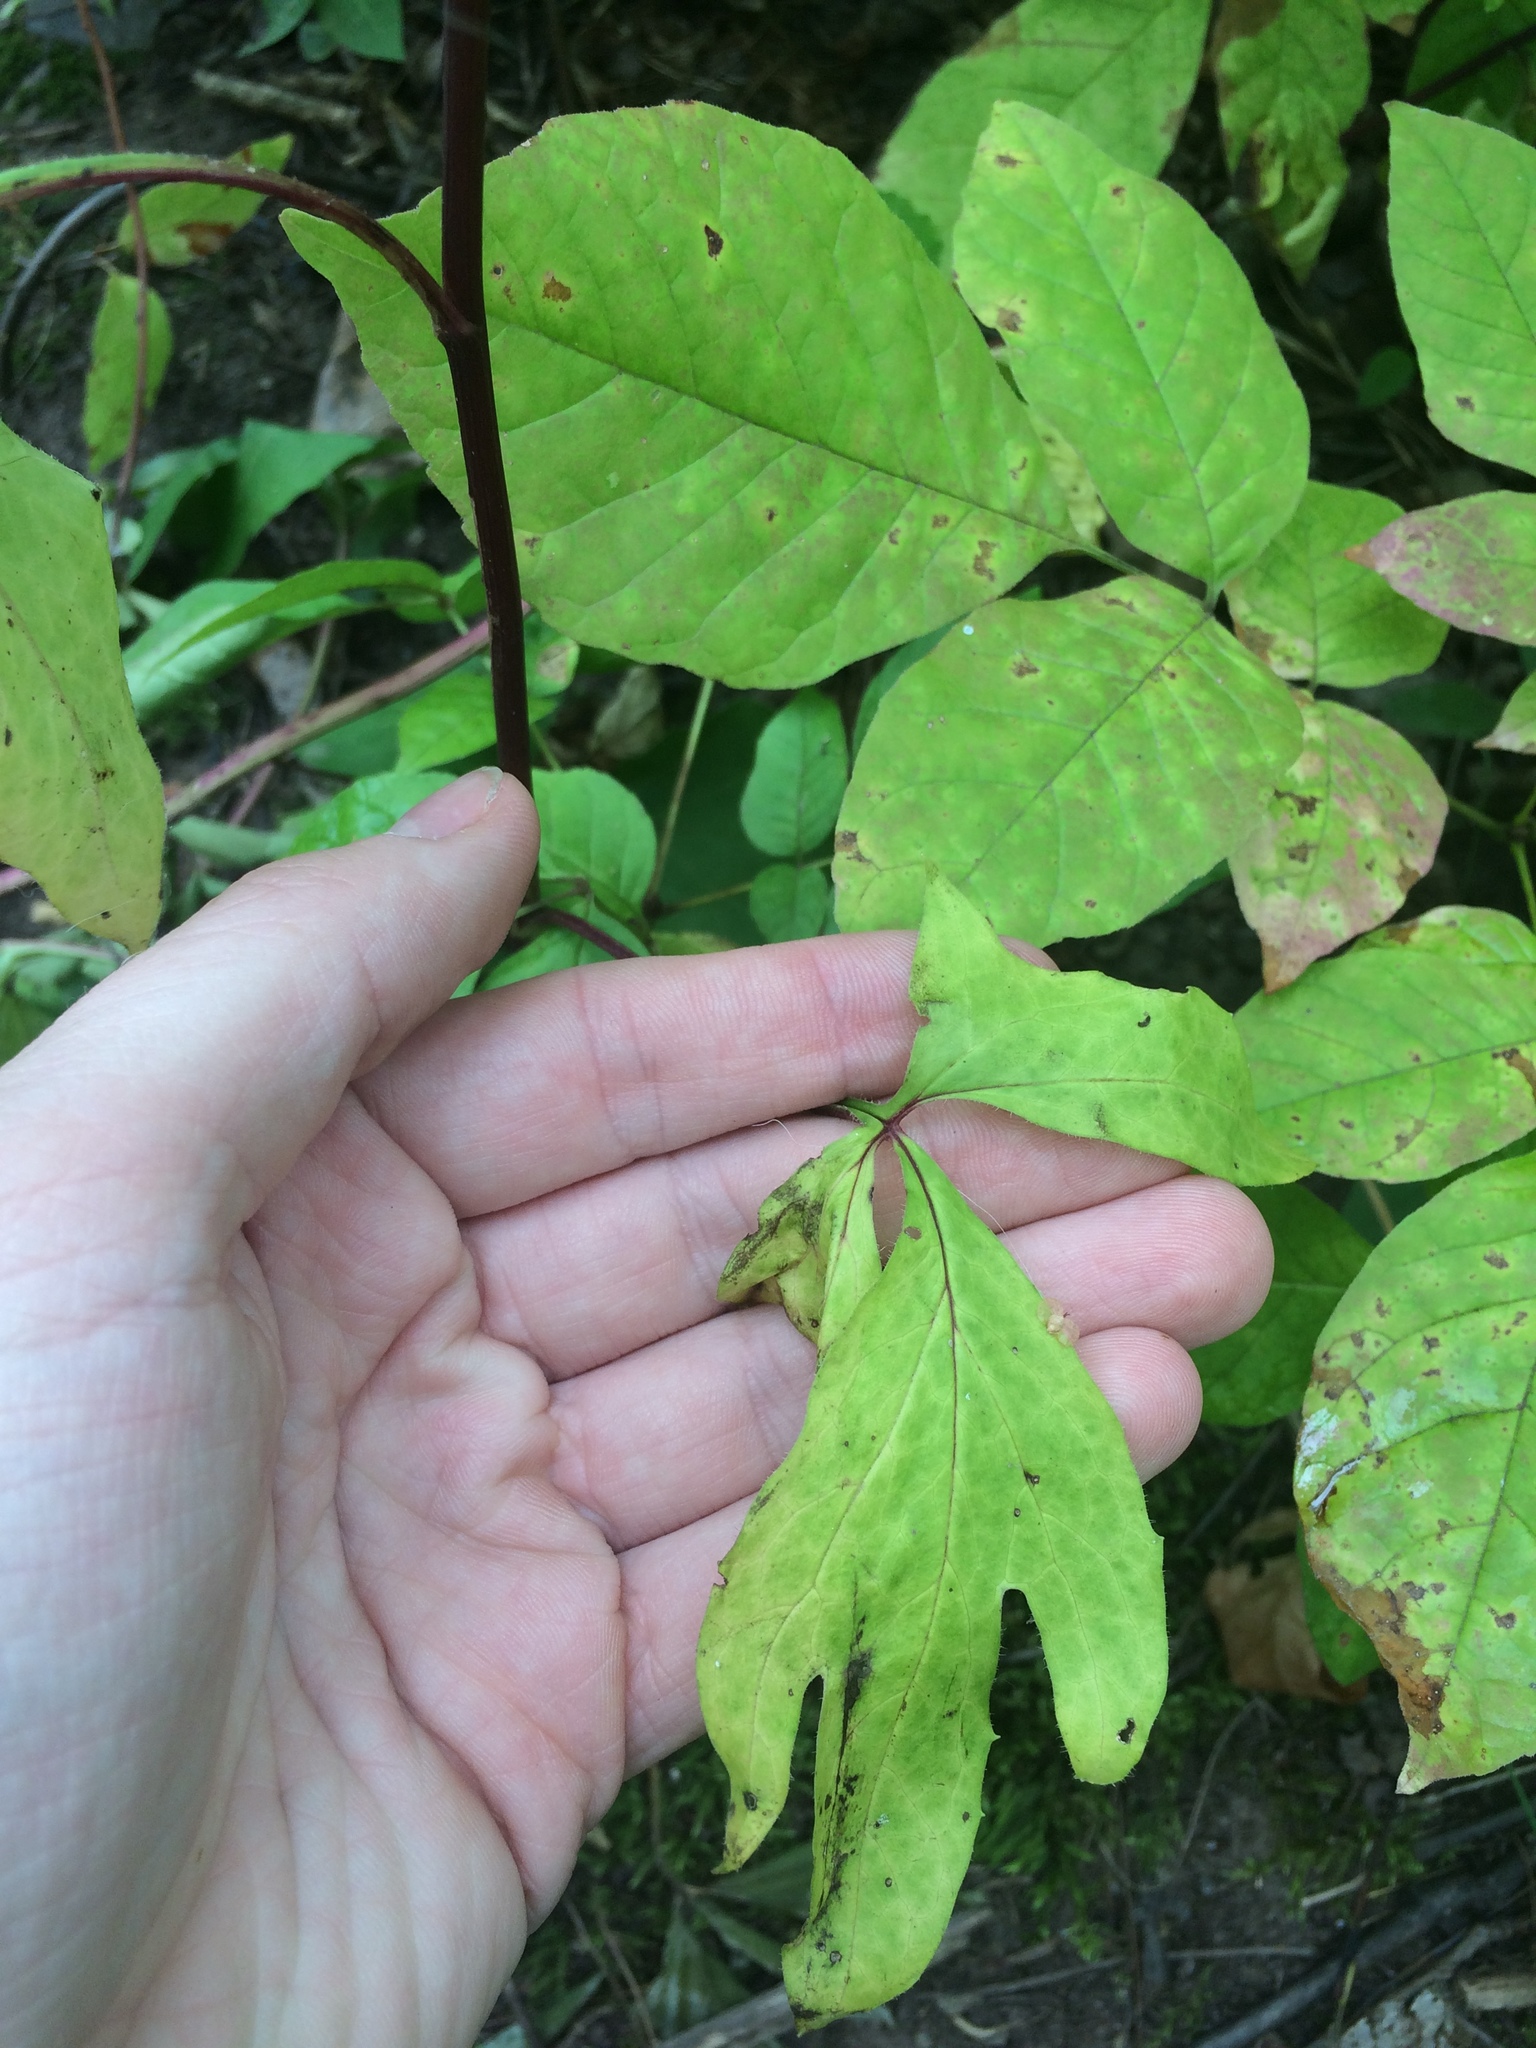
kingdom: Plantae
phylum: Tracheophyta
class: Magnoliopsida
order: Asterales
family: Asteraceae
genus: Nabalus
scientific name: Nabalus trifoliolatus
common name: Gall-of-the-earth
